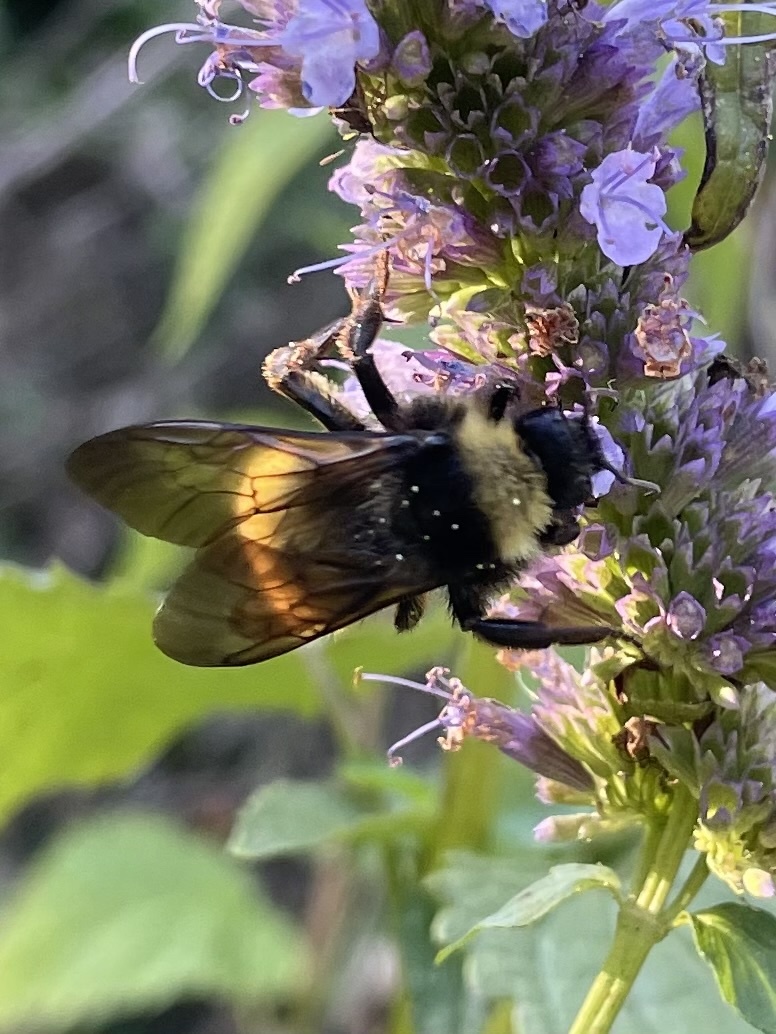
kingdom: Animalia
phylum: Arthropoda
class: Insecta
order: Hymenoptera
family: Apidae
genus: Bombus
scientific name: Bombus pensylvanicus
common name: Bumble bee
